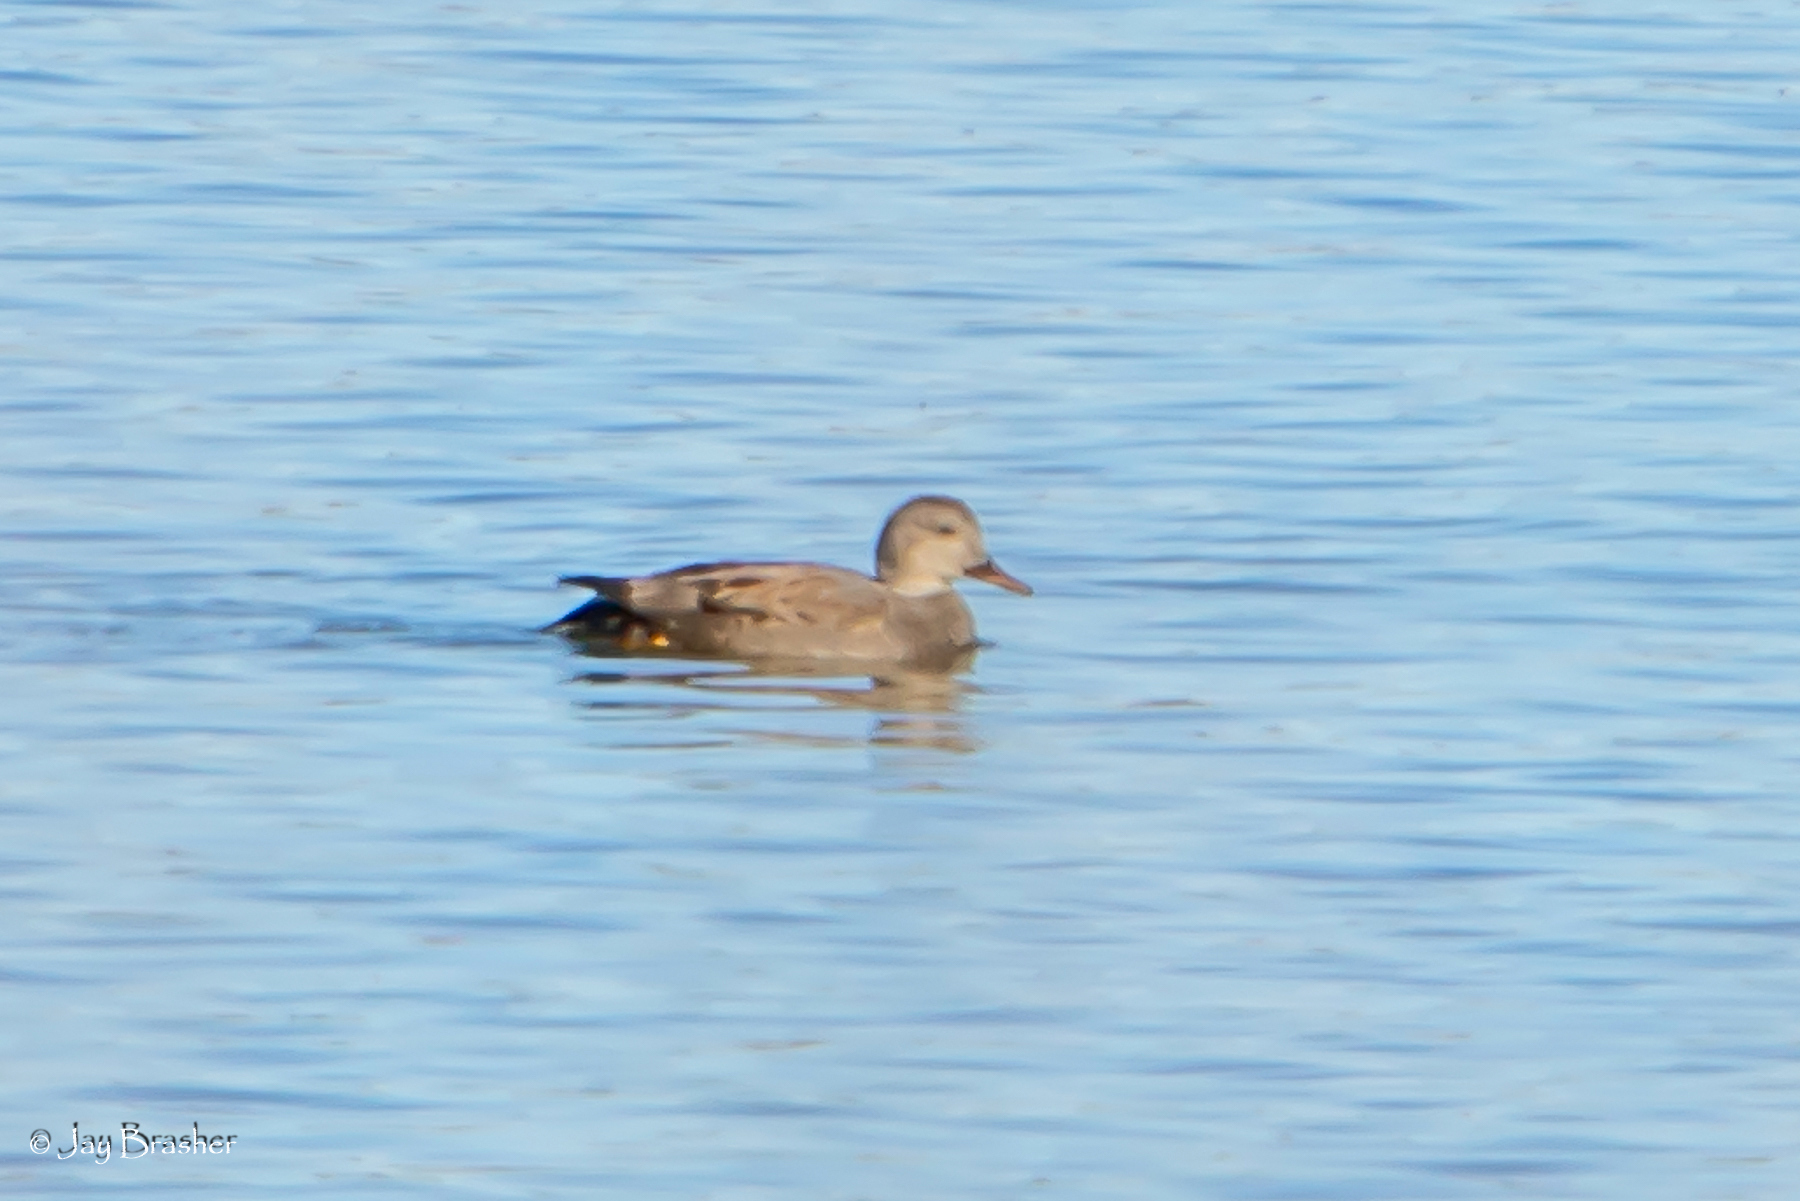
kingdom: Animalia
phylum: Chordata
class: Aves
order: Anseriformes
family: Anatidae
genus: Mareca
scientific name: Mareca strepera
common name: Gadwall
